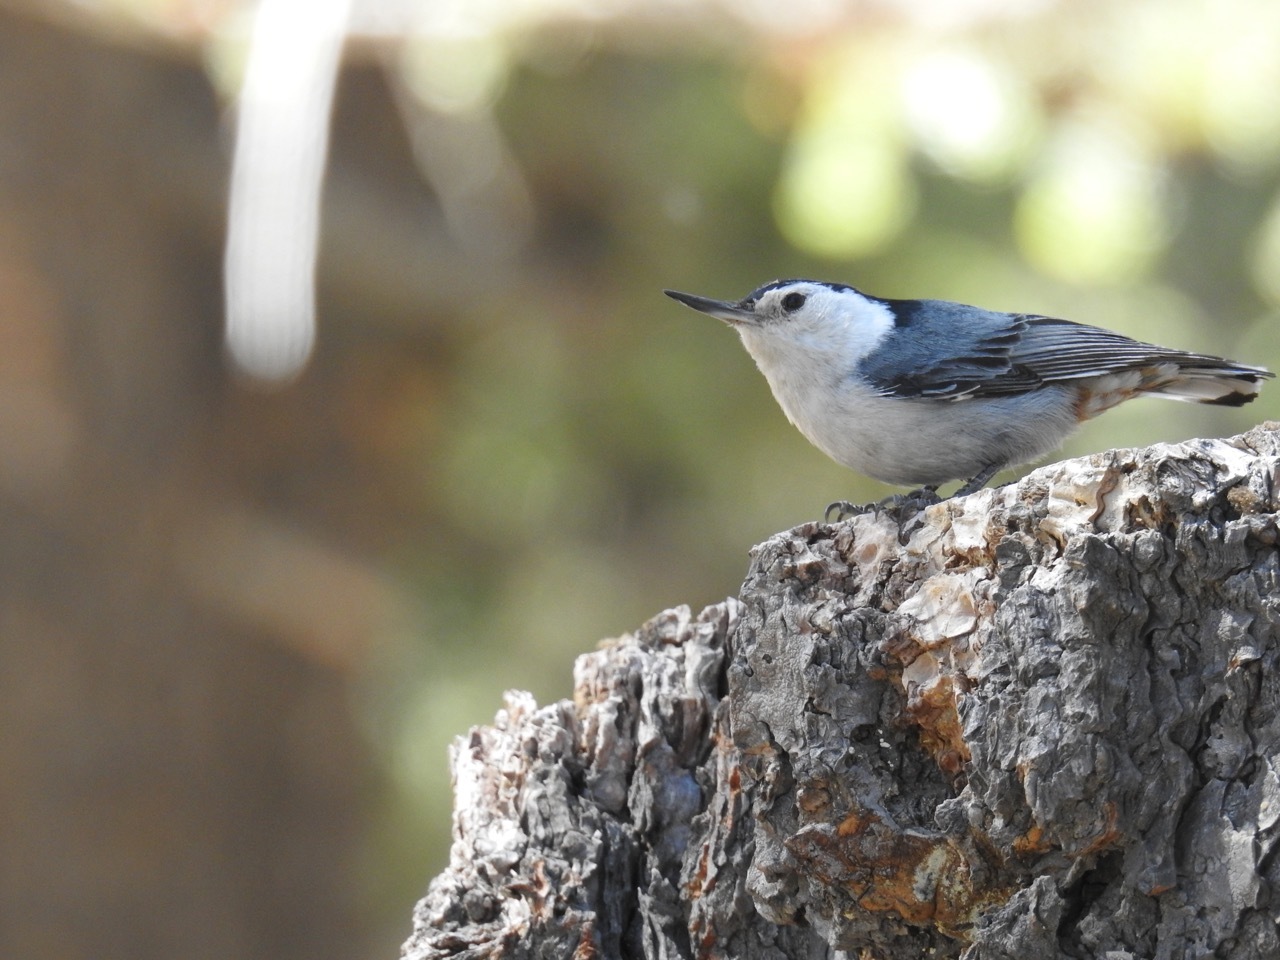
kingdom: Animalia
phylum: Chordata
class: Aves
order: Passeriformes
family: Sittidae
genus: Sitta
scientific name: Sitta carolinensis
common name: White-breasted nuthatch
